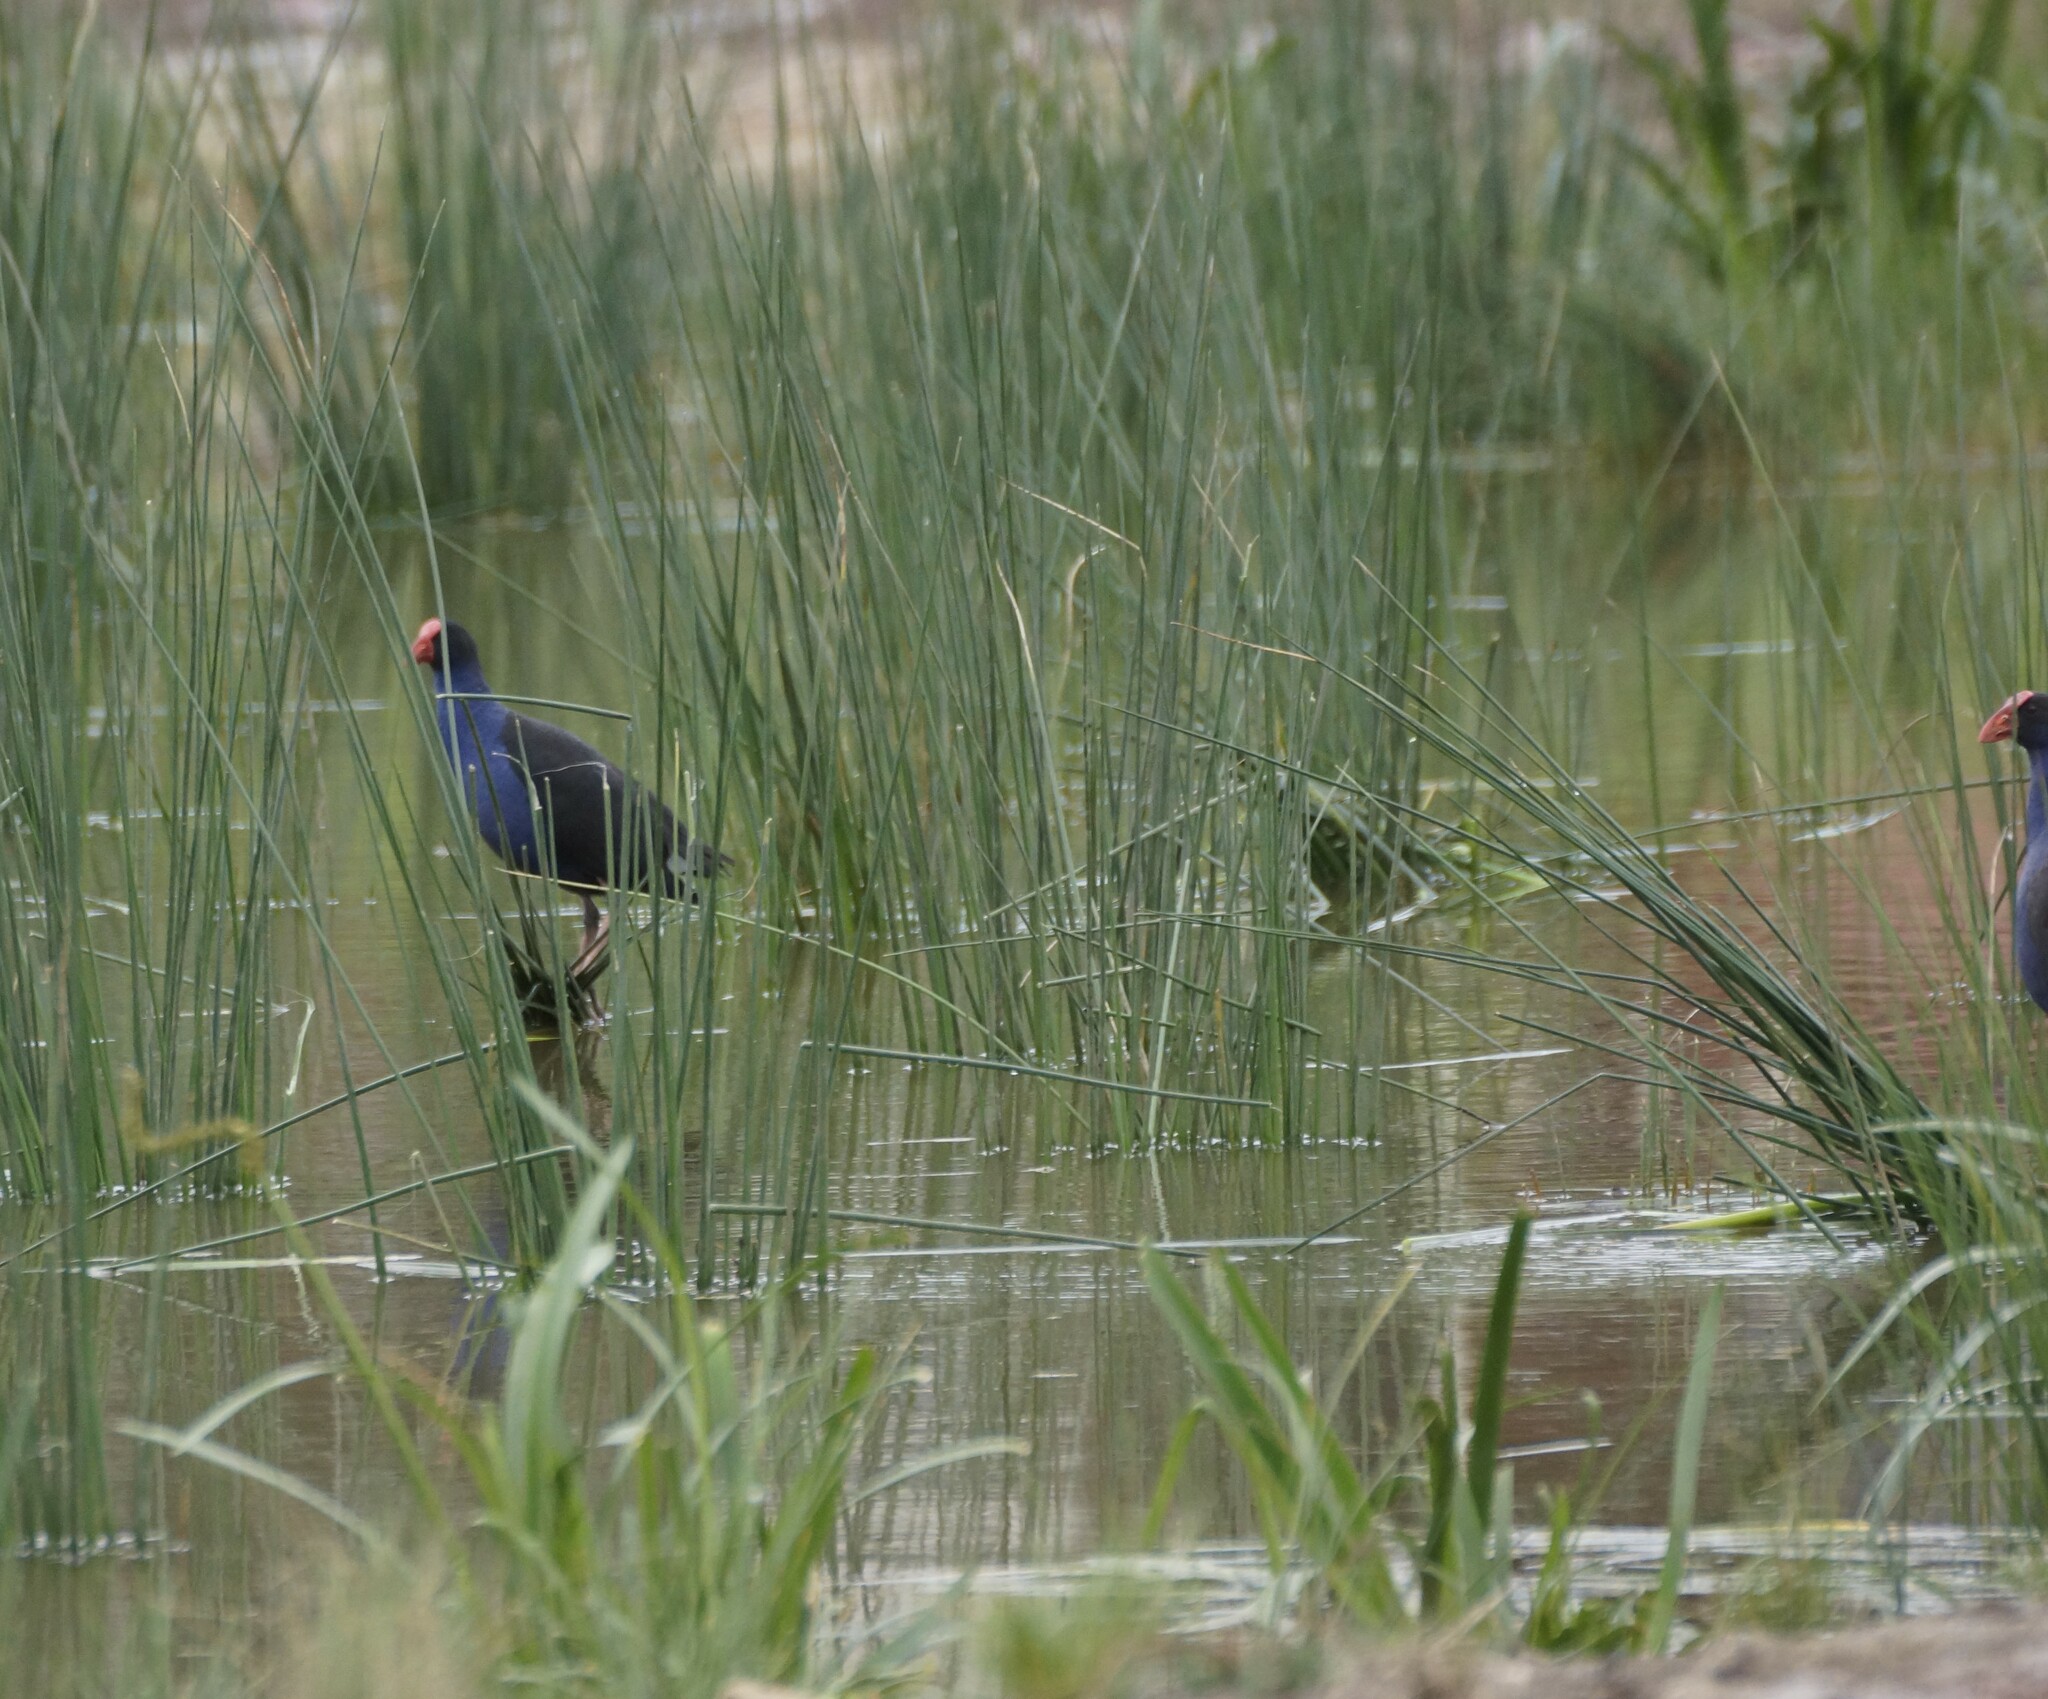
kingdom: Animalia
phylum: Chordata
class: Aves
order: Gruiformes
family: Rallidae
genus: Porphyrio
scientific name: Porphyrio melanotus
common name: Australasian swamphen
